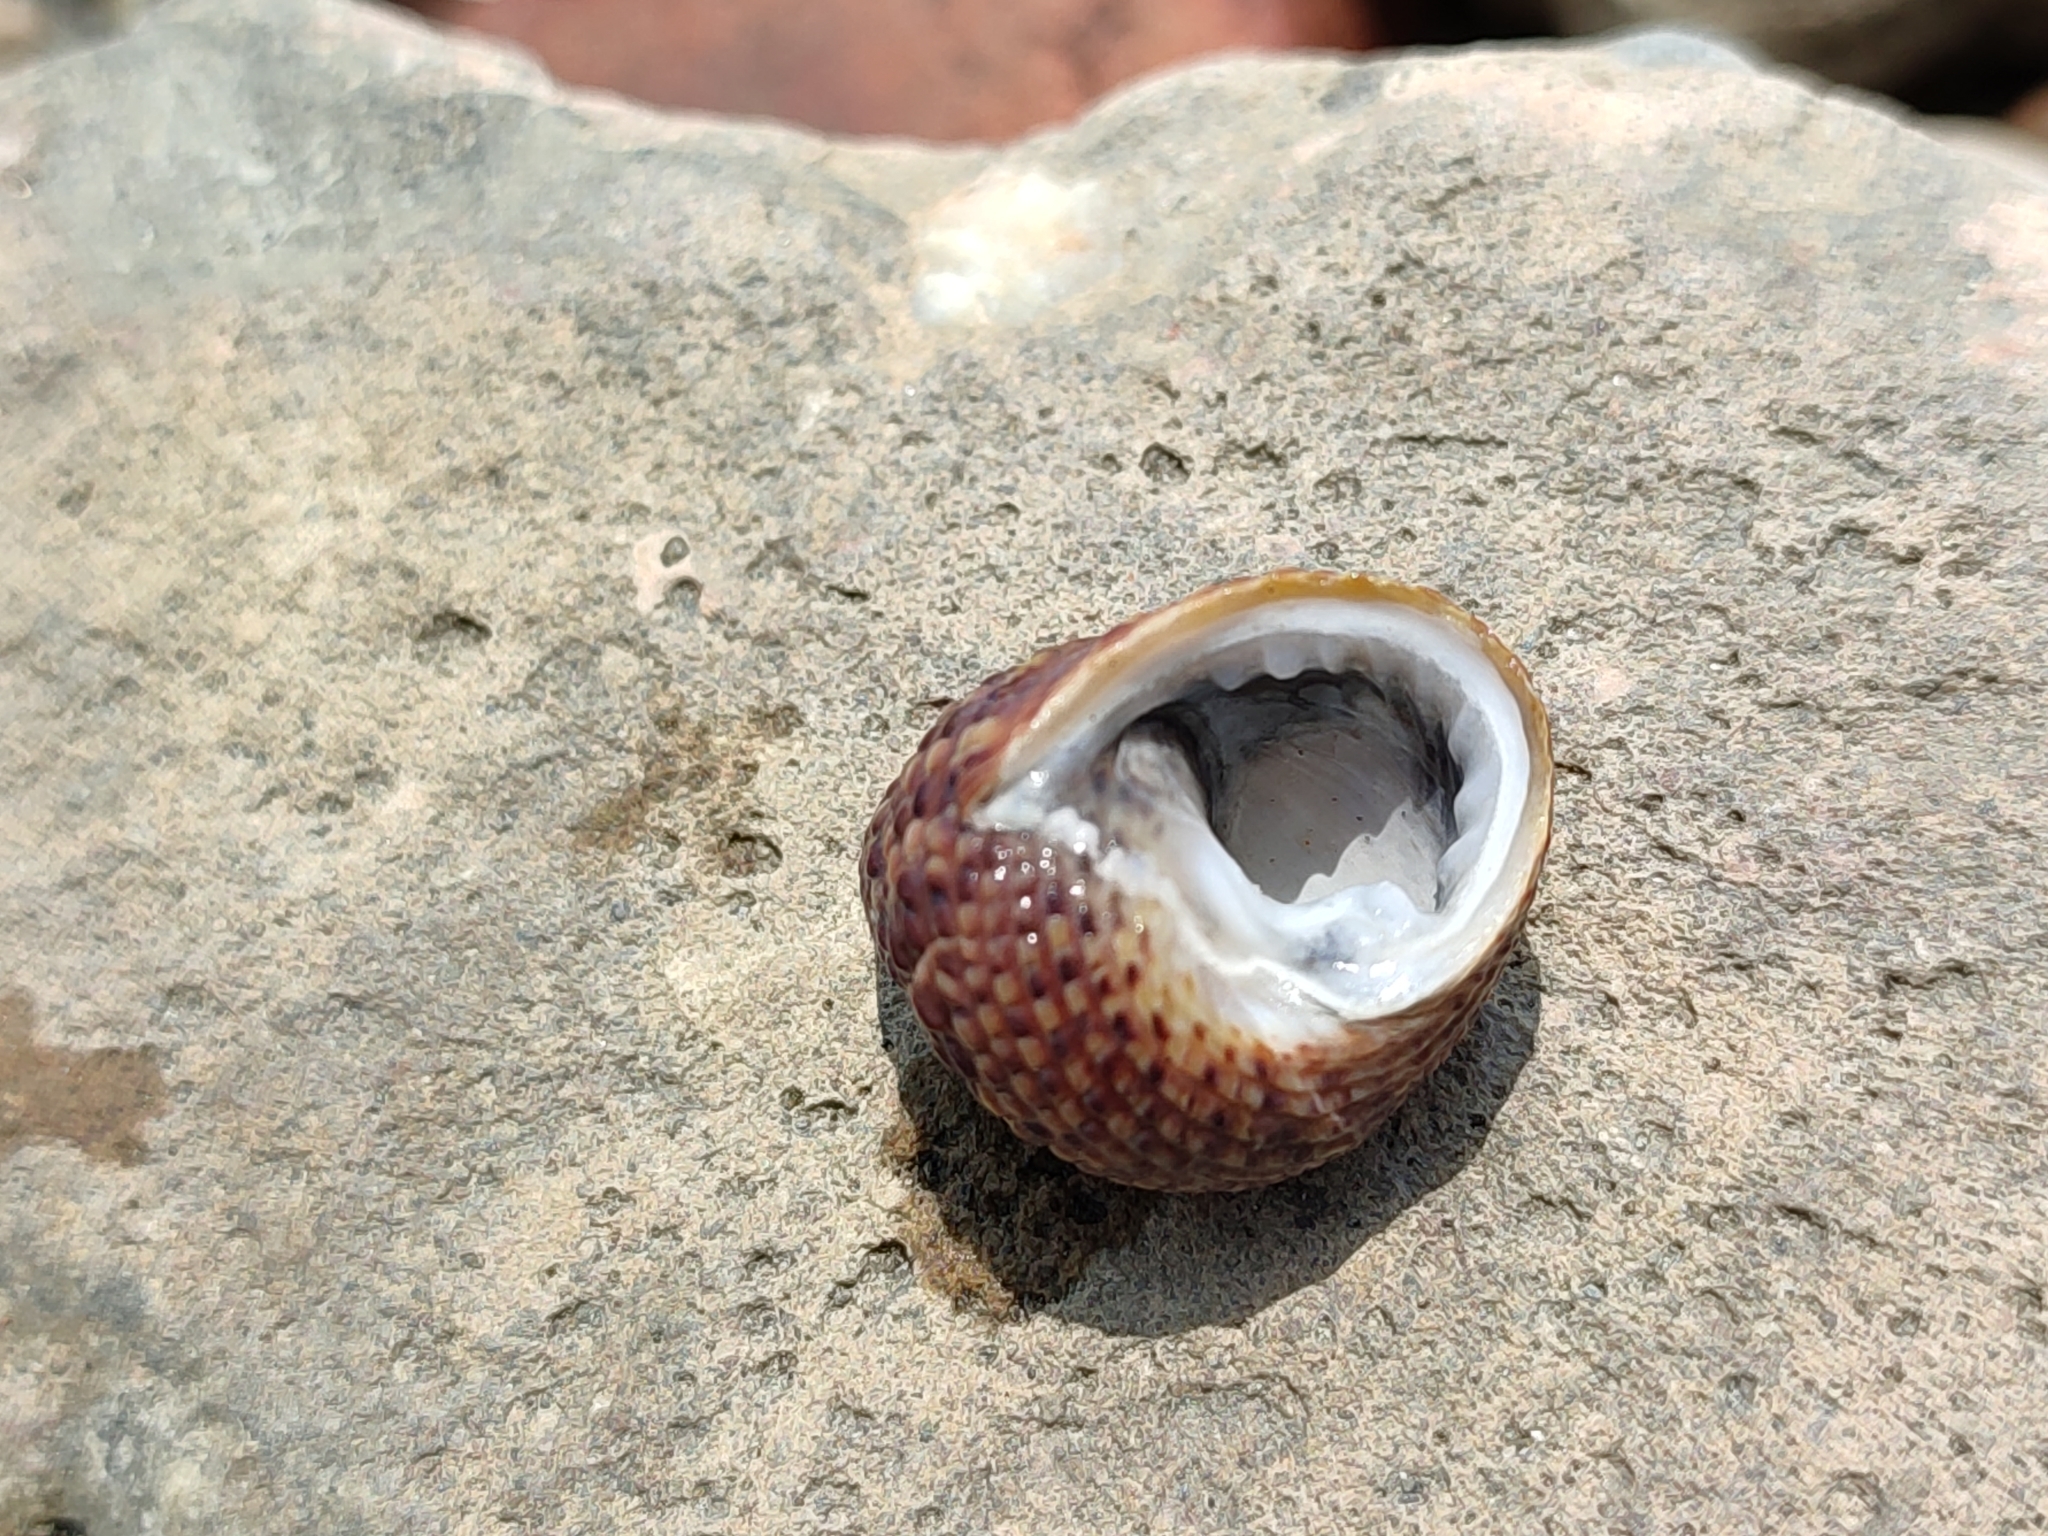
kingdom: Animalia
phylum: Mollusca
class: Gastropoda
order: Trochida
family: Trochidae
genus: Monodonta
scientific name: Monodonta labio
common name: Labio
